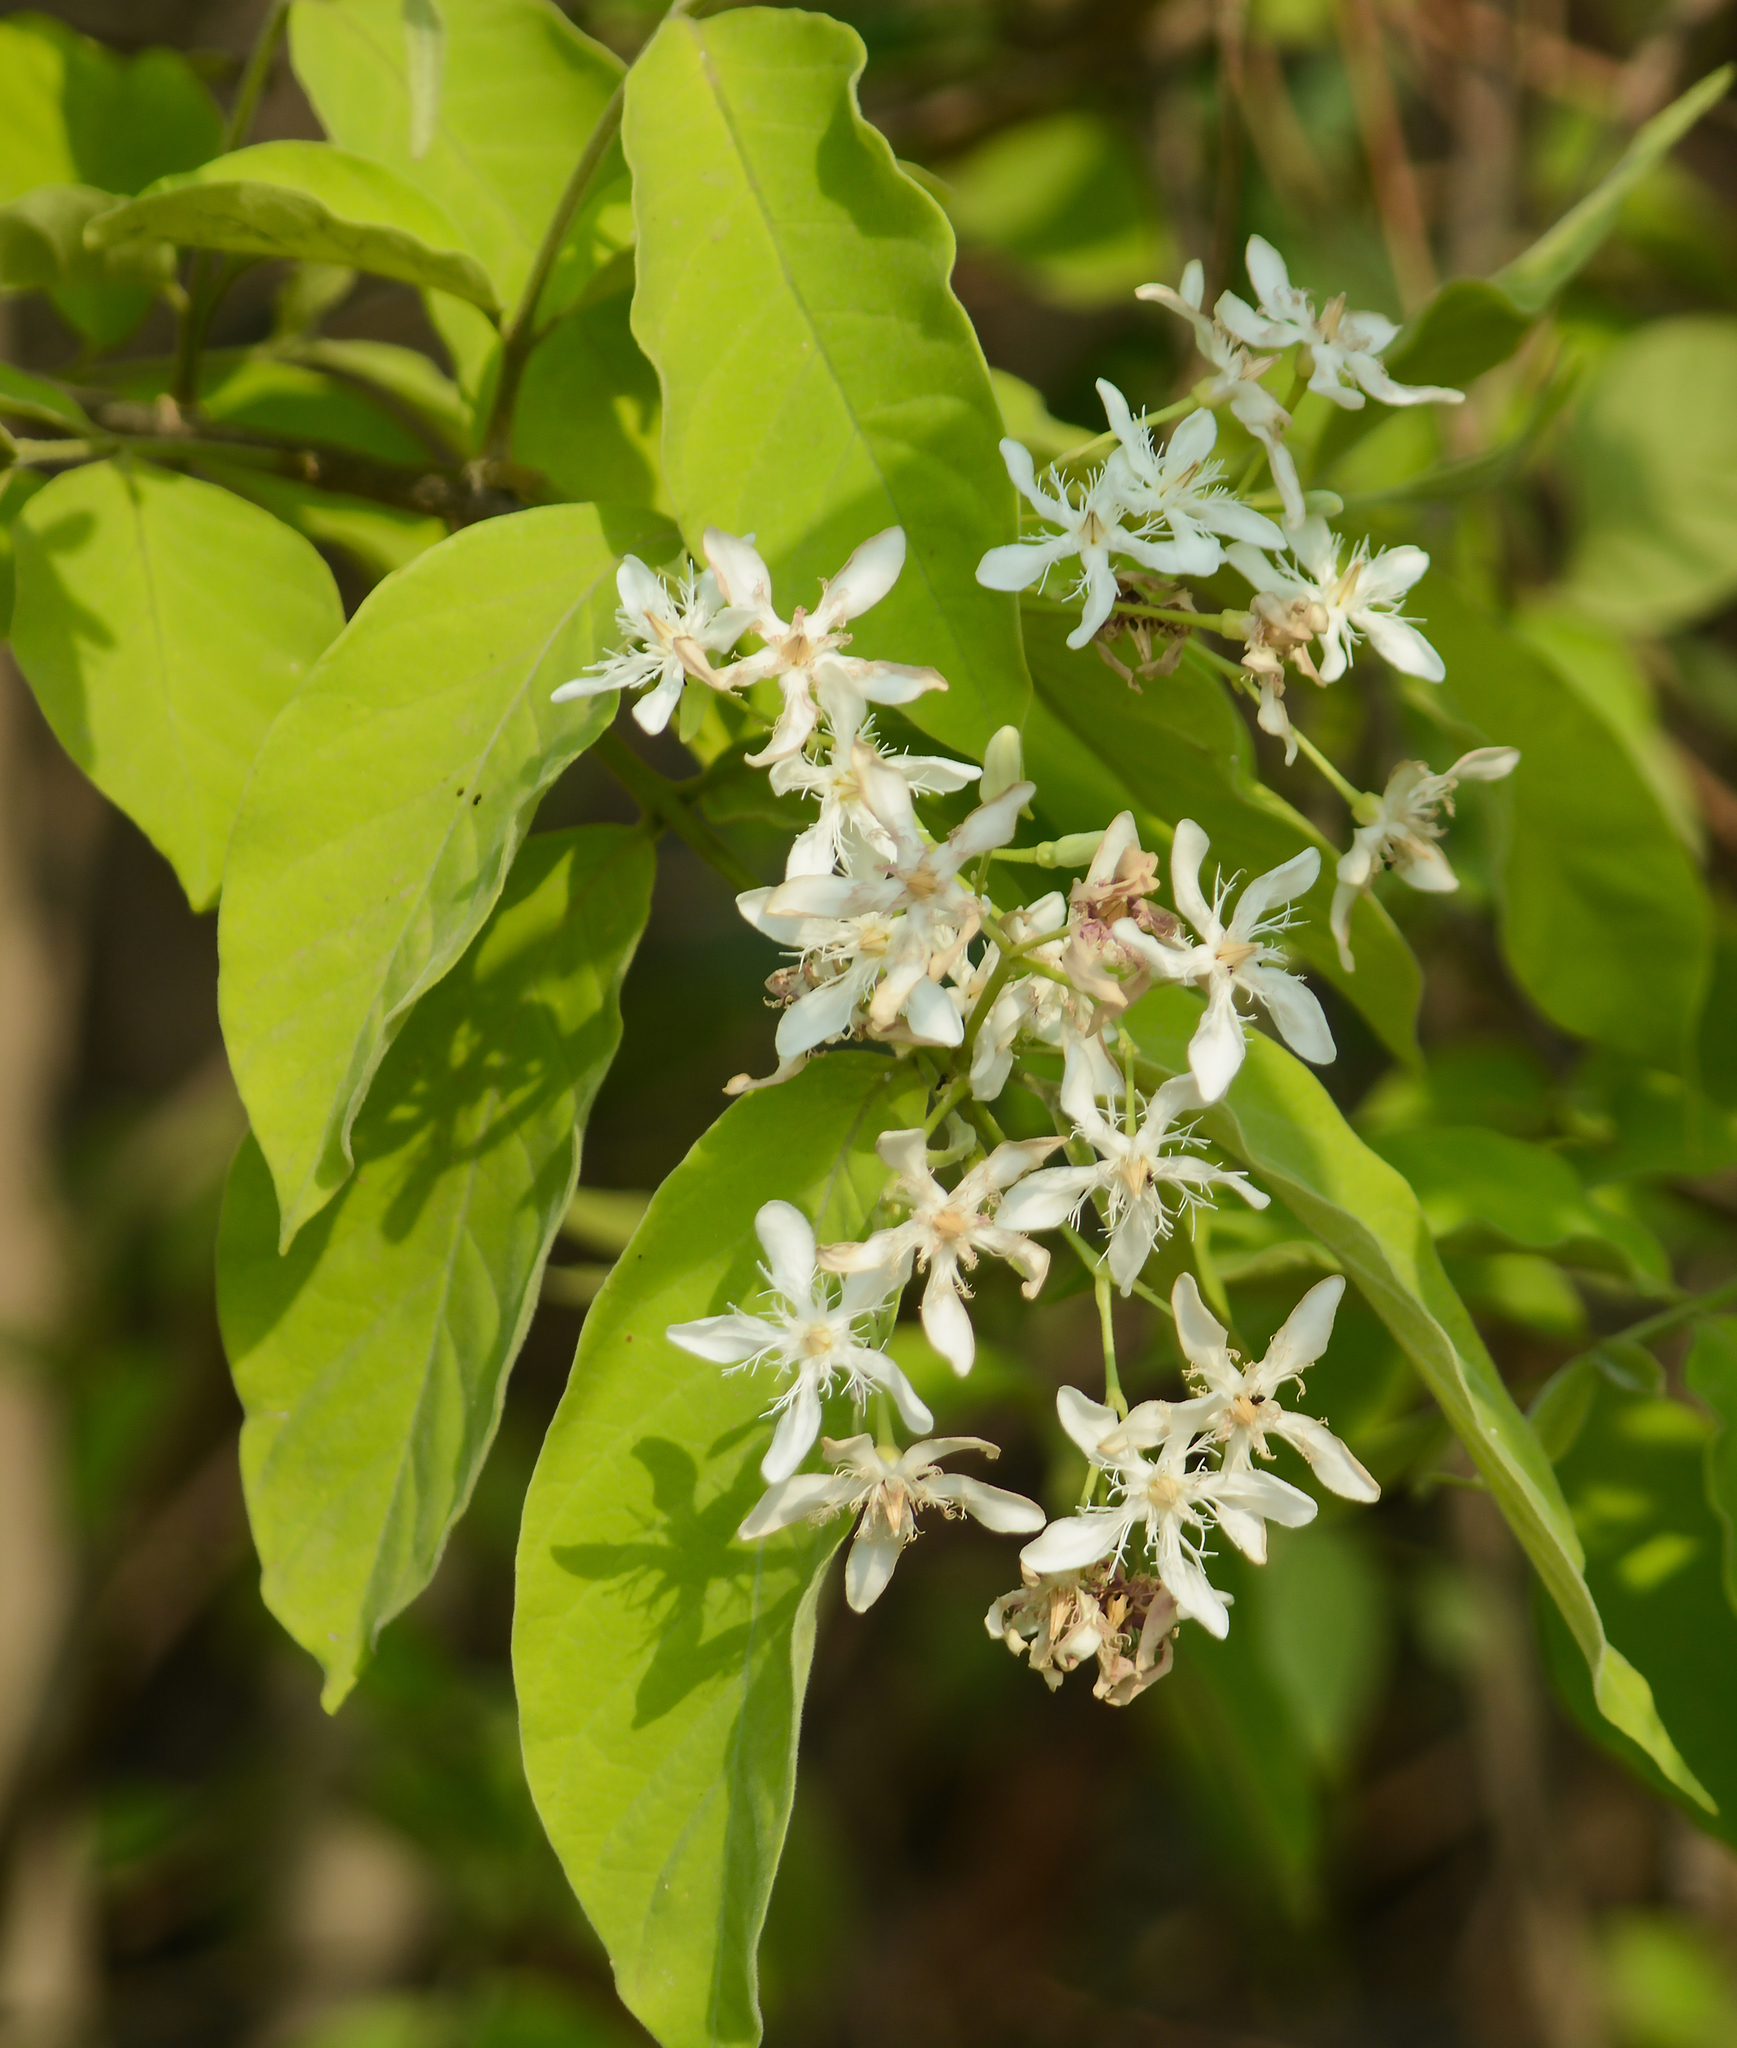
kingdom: Plantae
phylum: Tracheophyta
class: Magnoliopsida
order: Gentianales
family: Apocynaceae
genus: Wrightia
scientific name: Wrightia tinctoria
